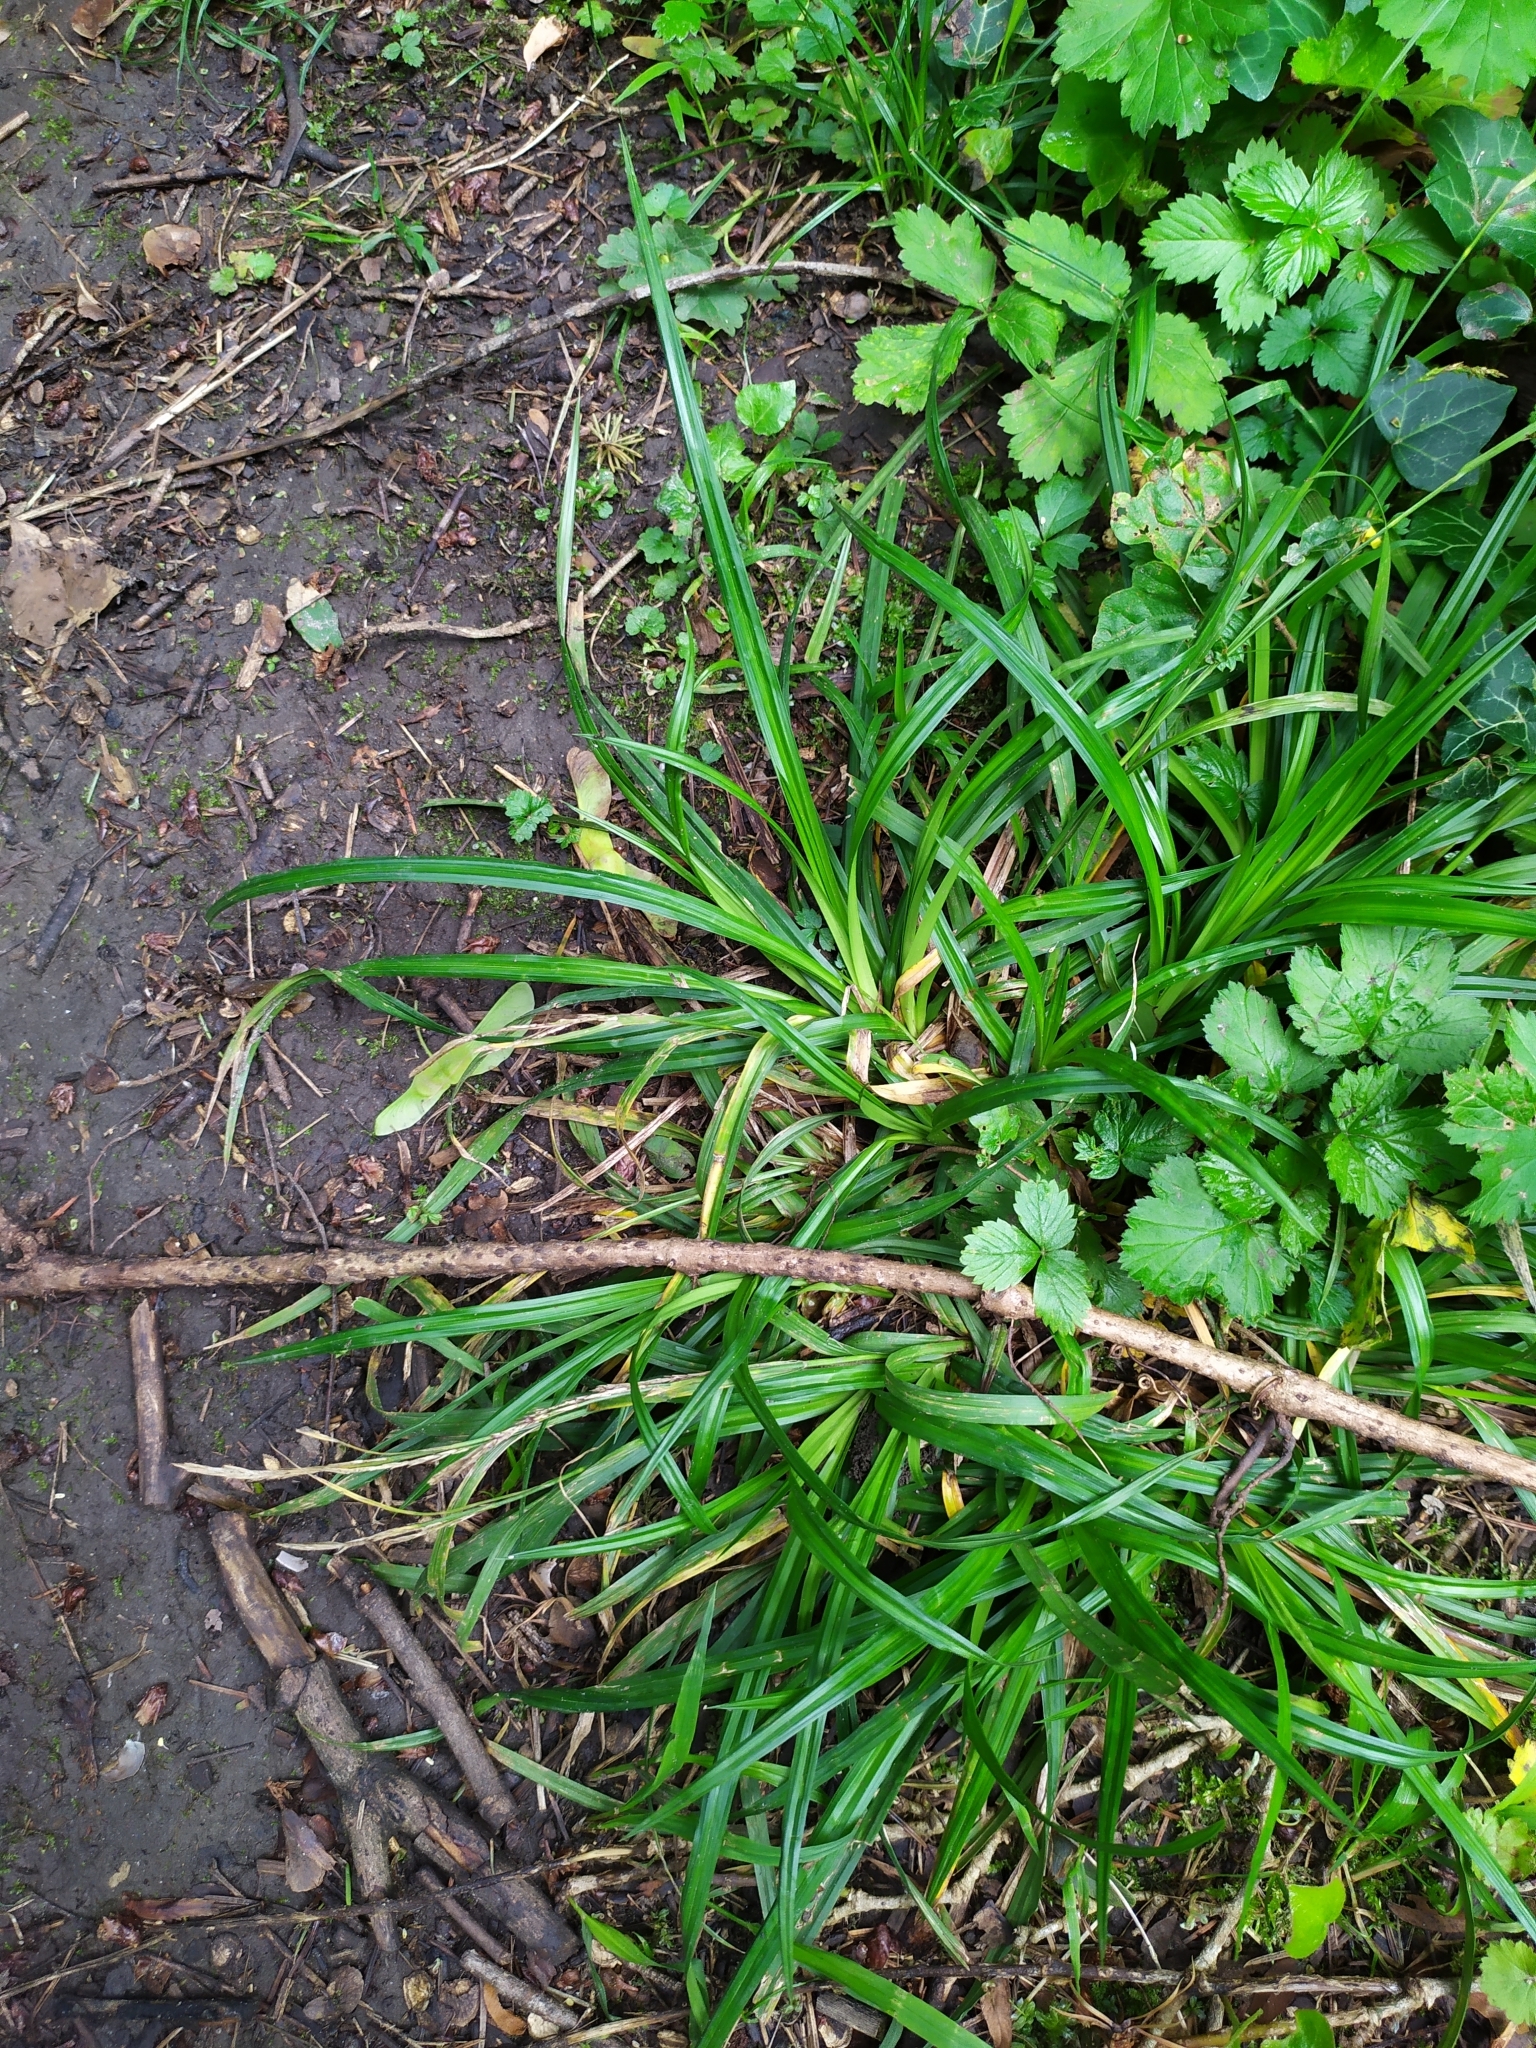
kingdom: Plantae
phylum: Tracheophyta
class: Liliopsida
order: Poales
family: Cyperaceae
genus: Carex
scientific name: Carex sylvatica
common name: Wood-sedge
